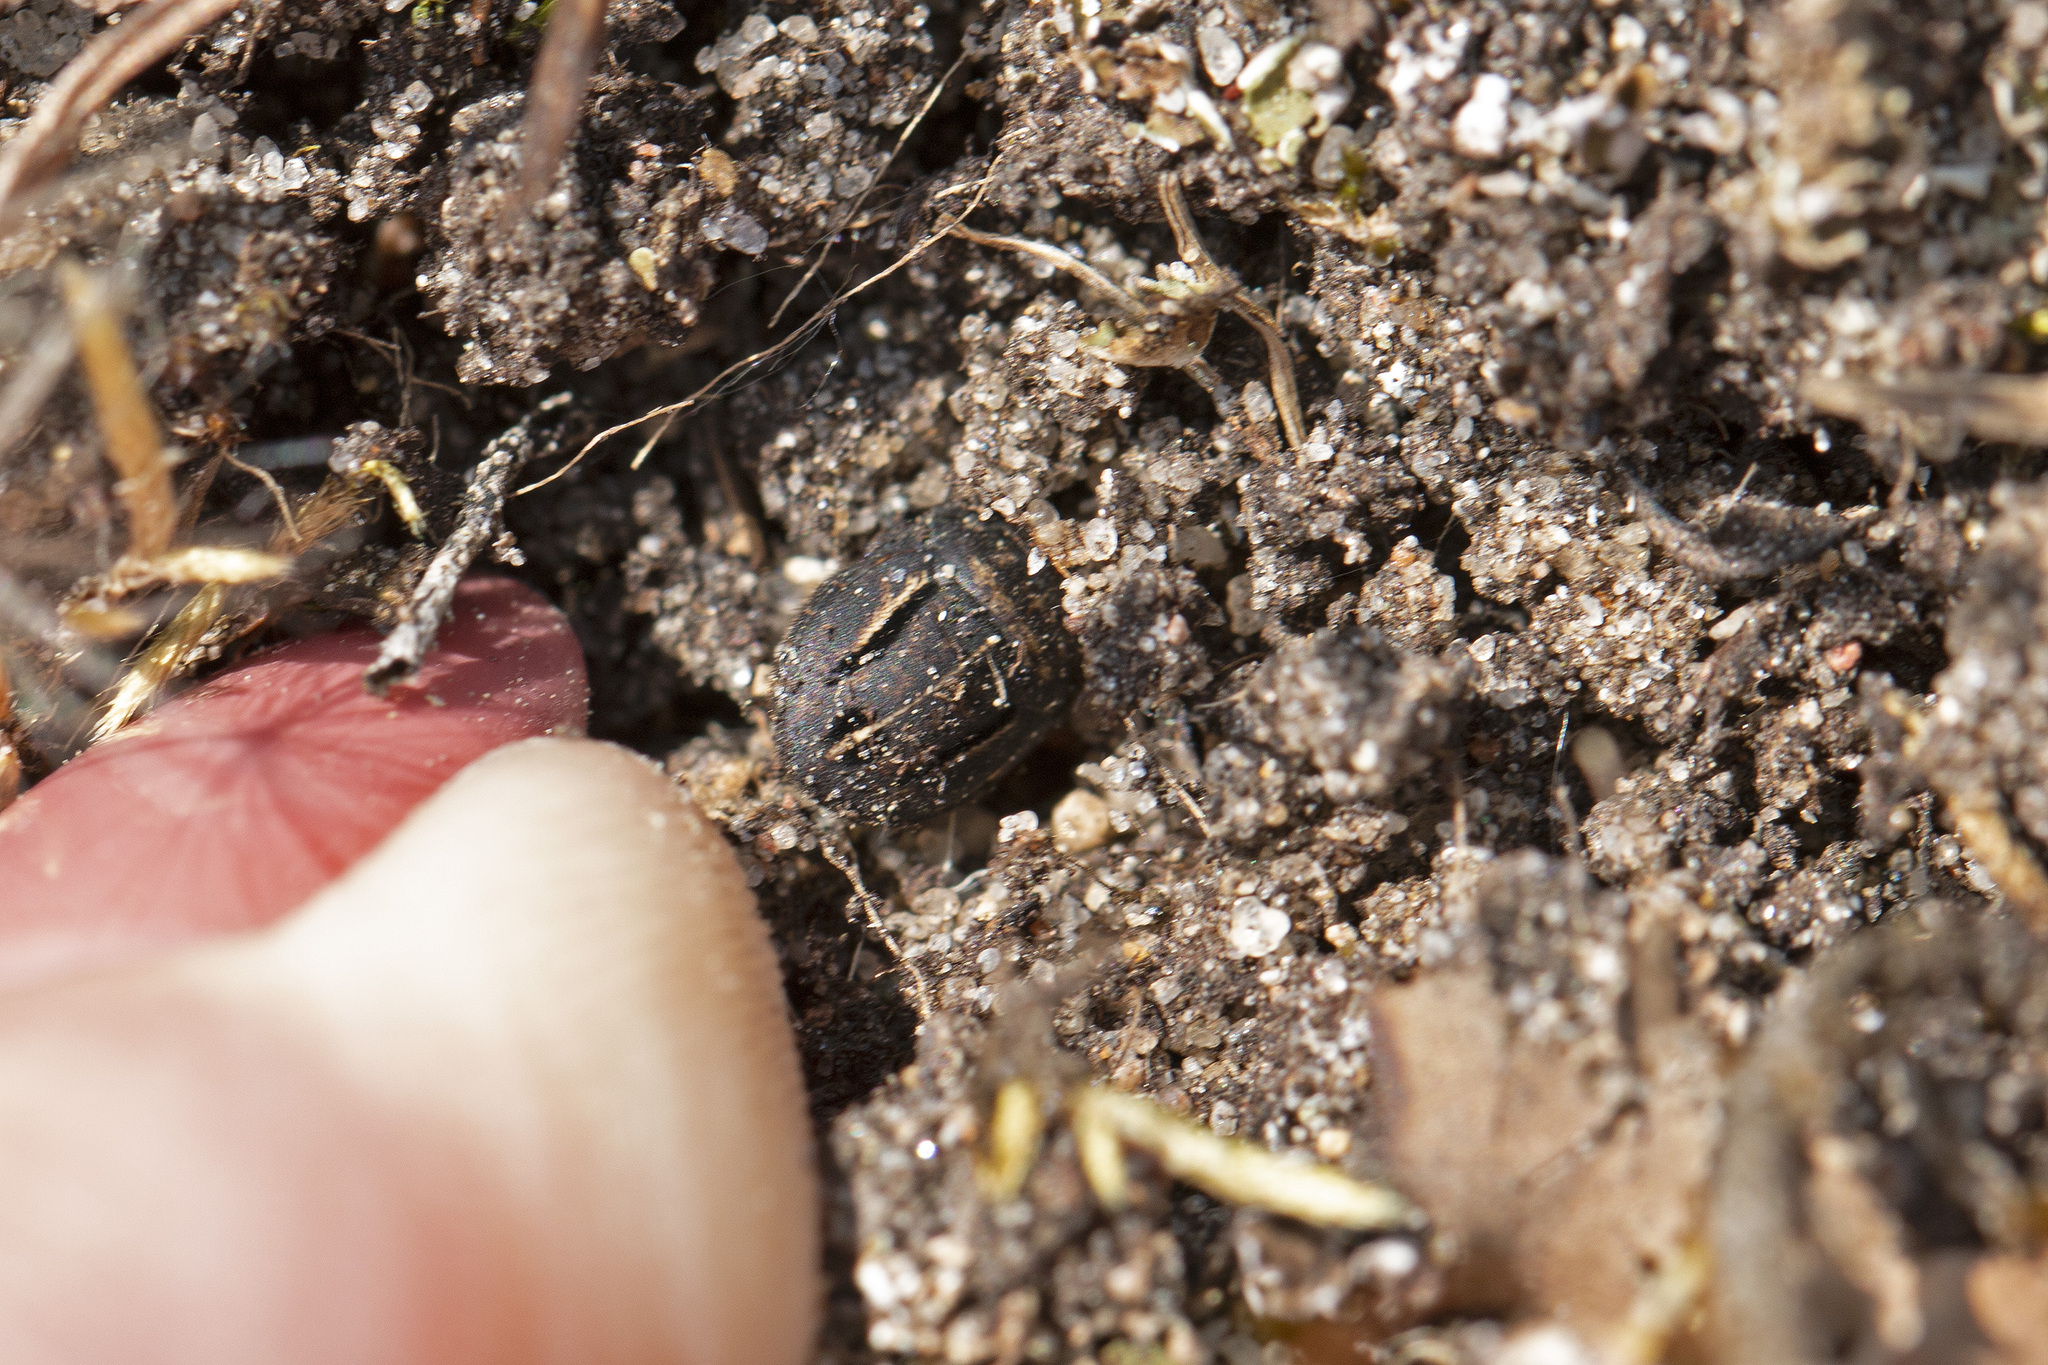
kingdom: Animalia
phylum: Arthropoda
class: Insecta
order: Hemiptera
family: Scutelleridae
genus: Odontoscelis
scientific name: Odontoscelis fuliginosa
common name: Greater streaked shieldbug
